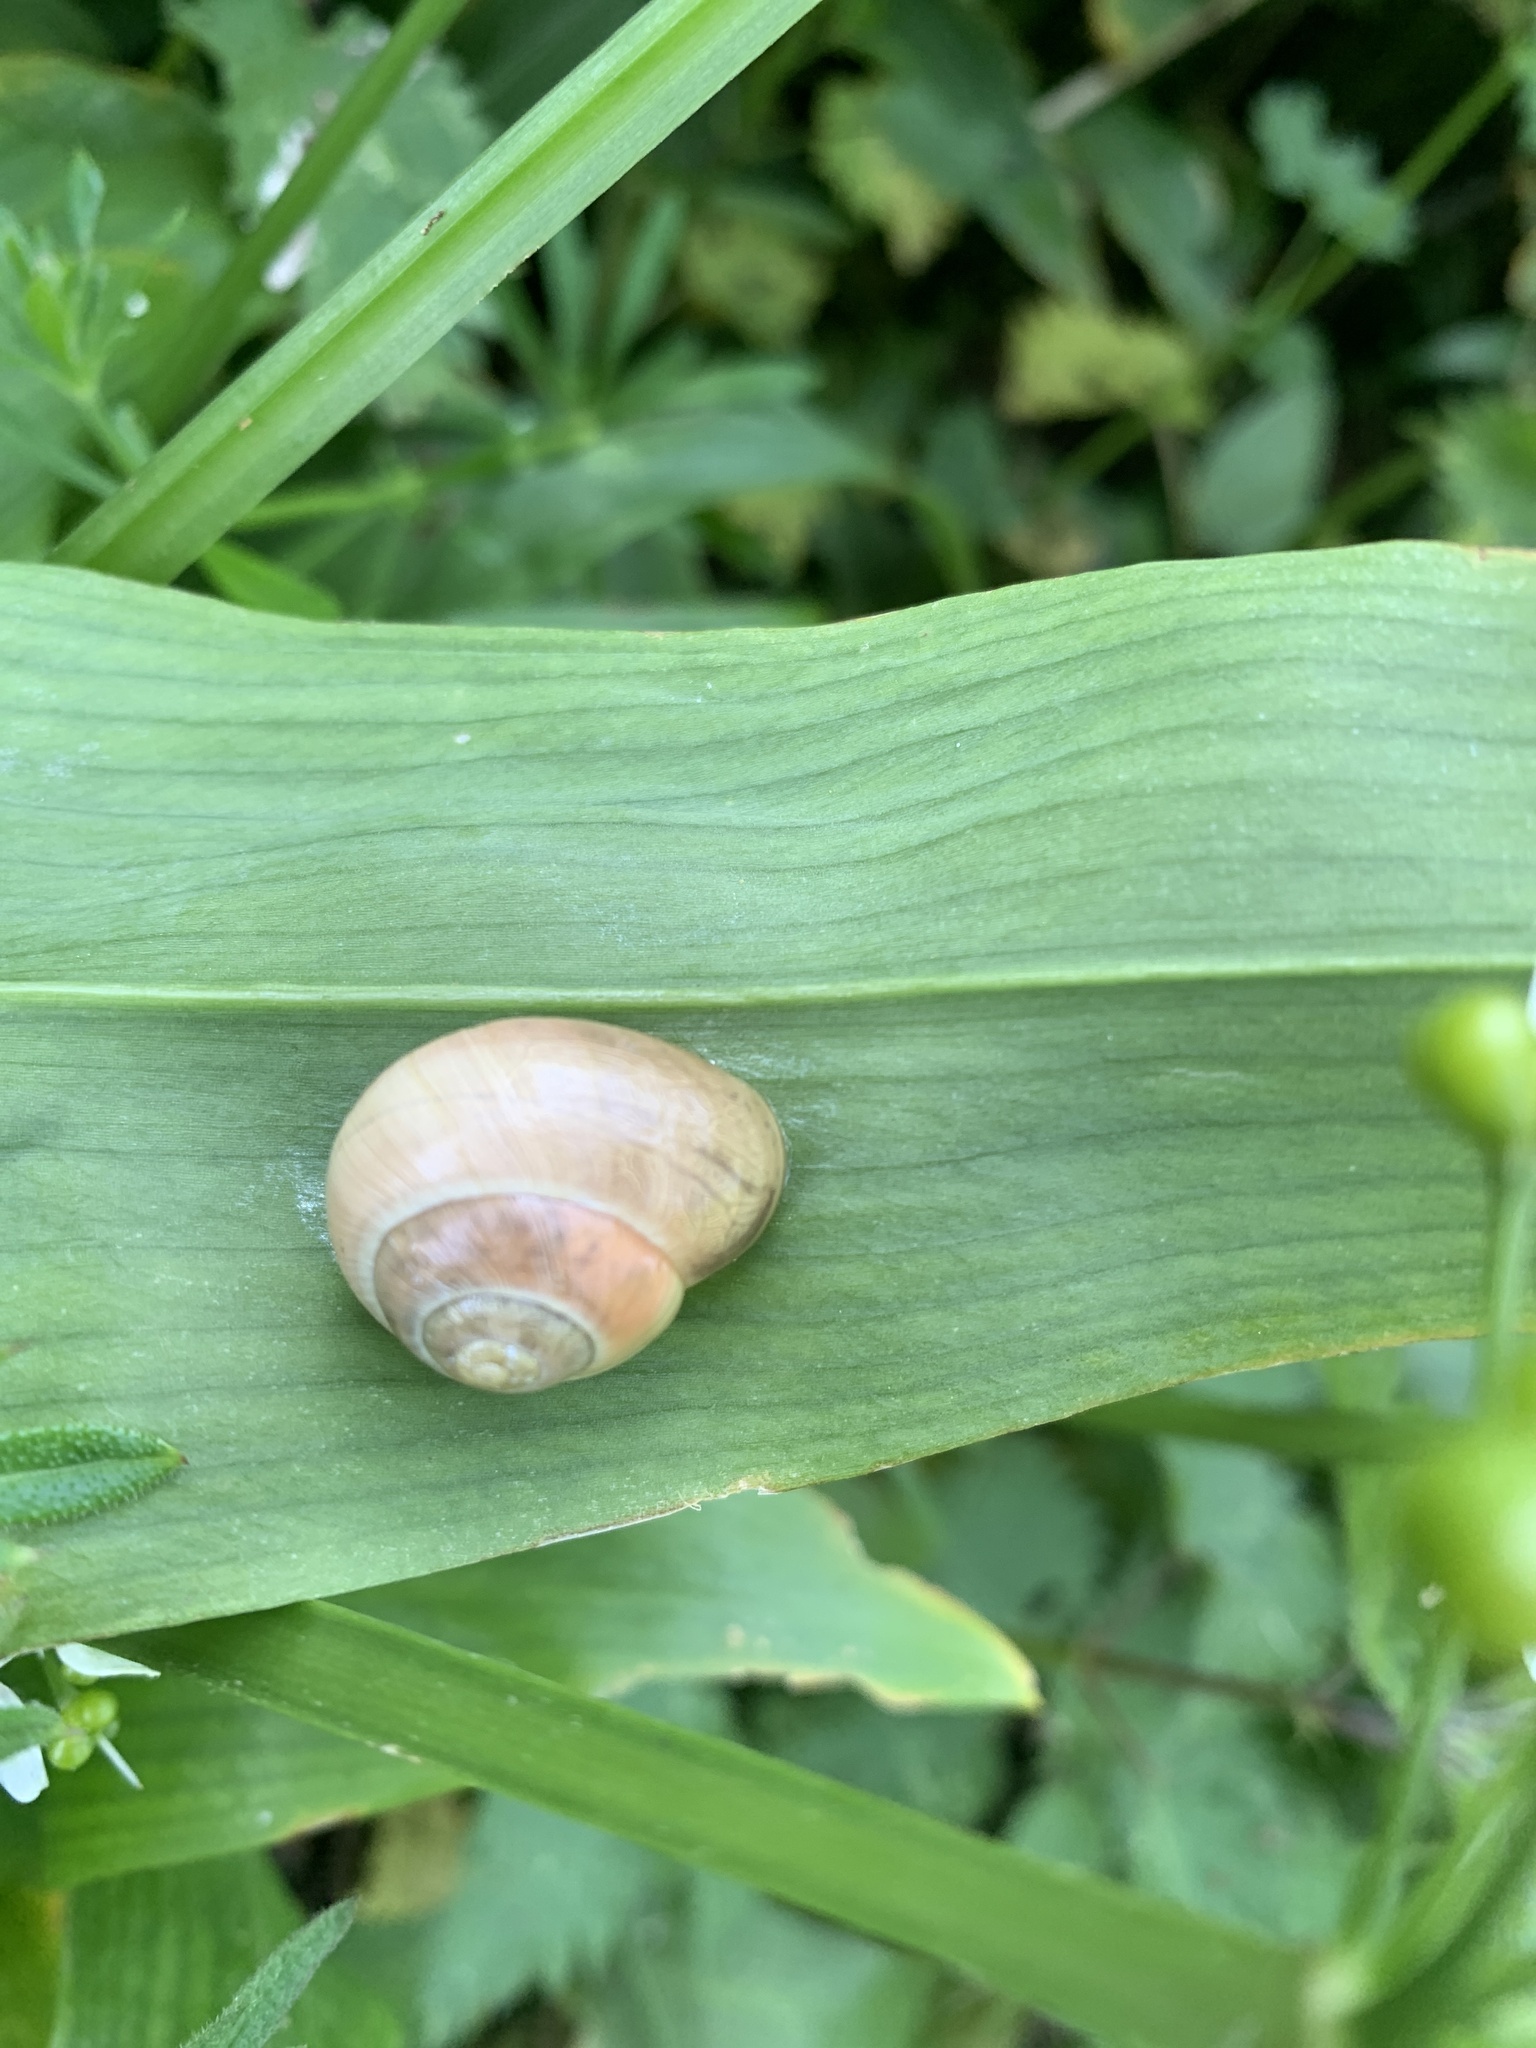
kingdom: Animalia
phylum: Mollusca
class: Gastropoda
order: Stylommatophora
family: Hygromiidae
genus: Monacha
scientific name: Monacha cantiana
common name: Kentish snail
